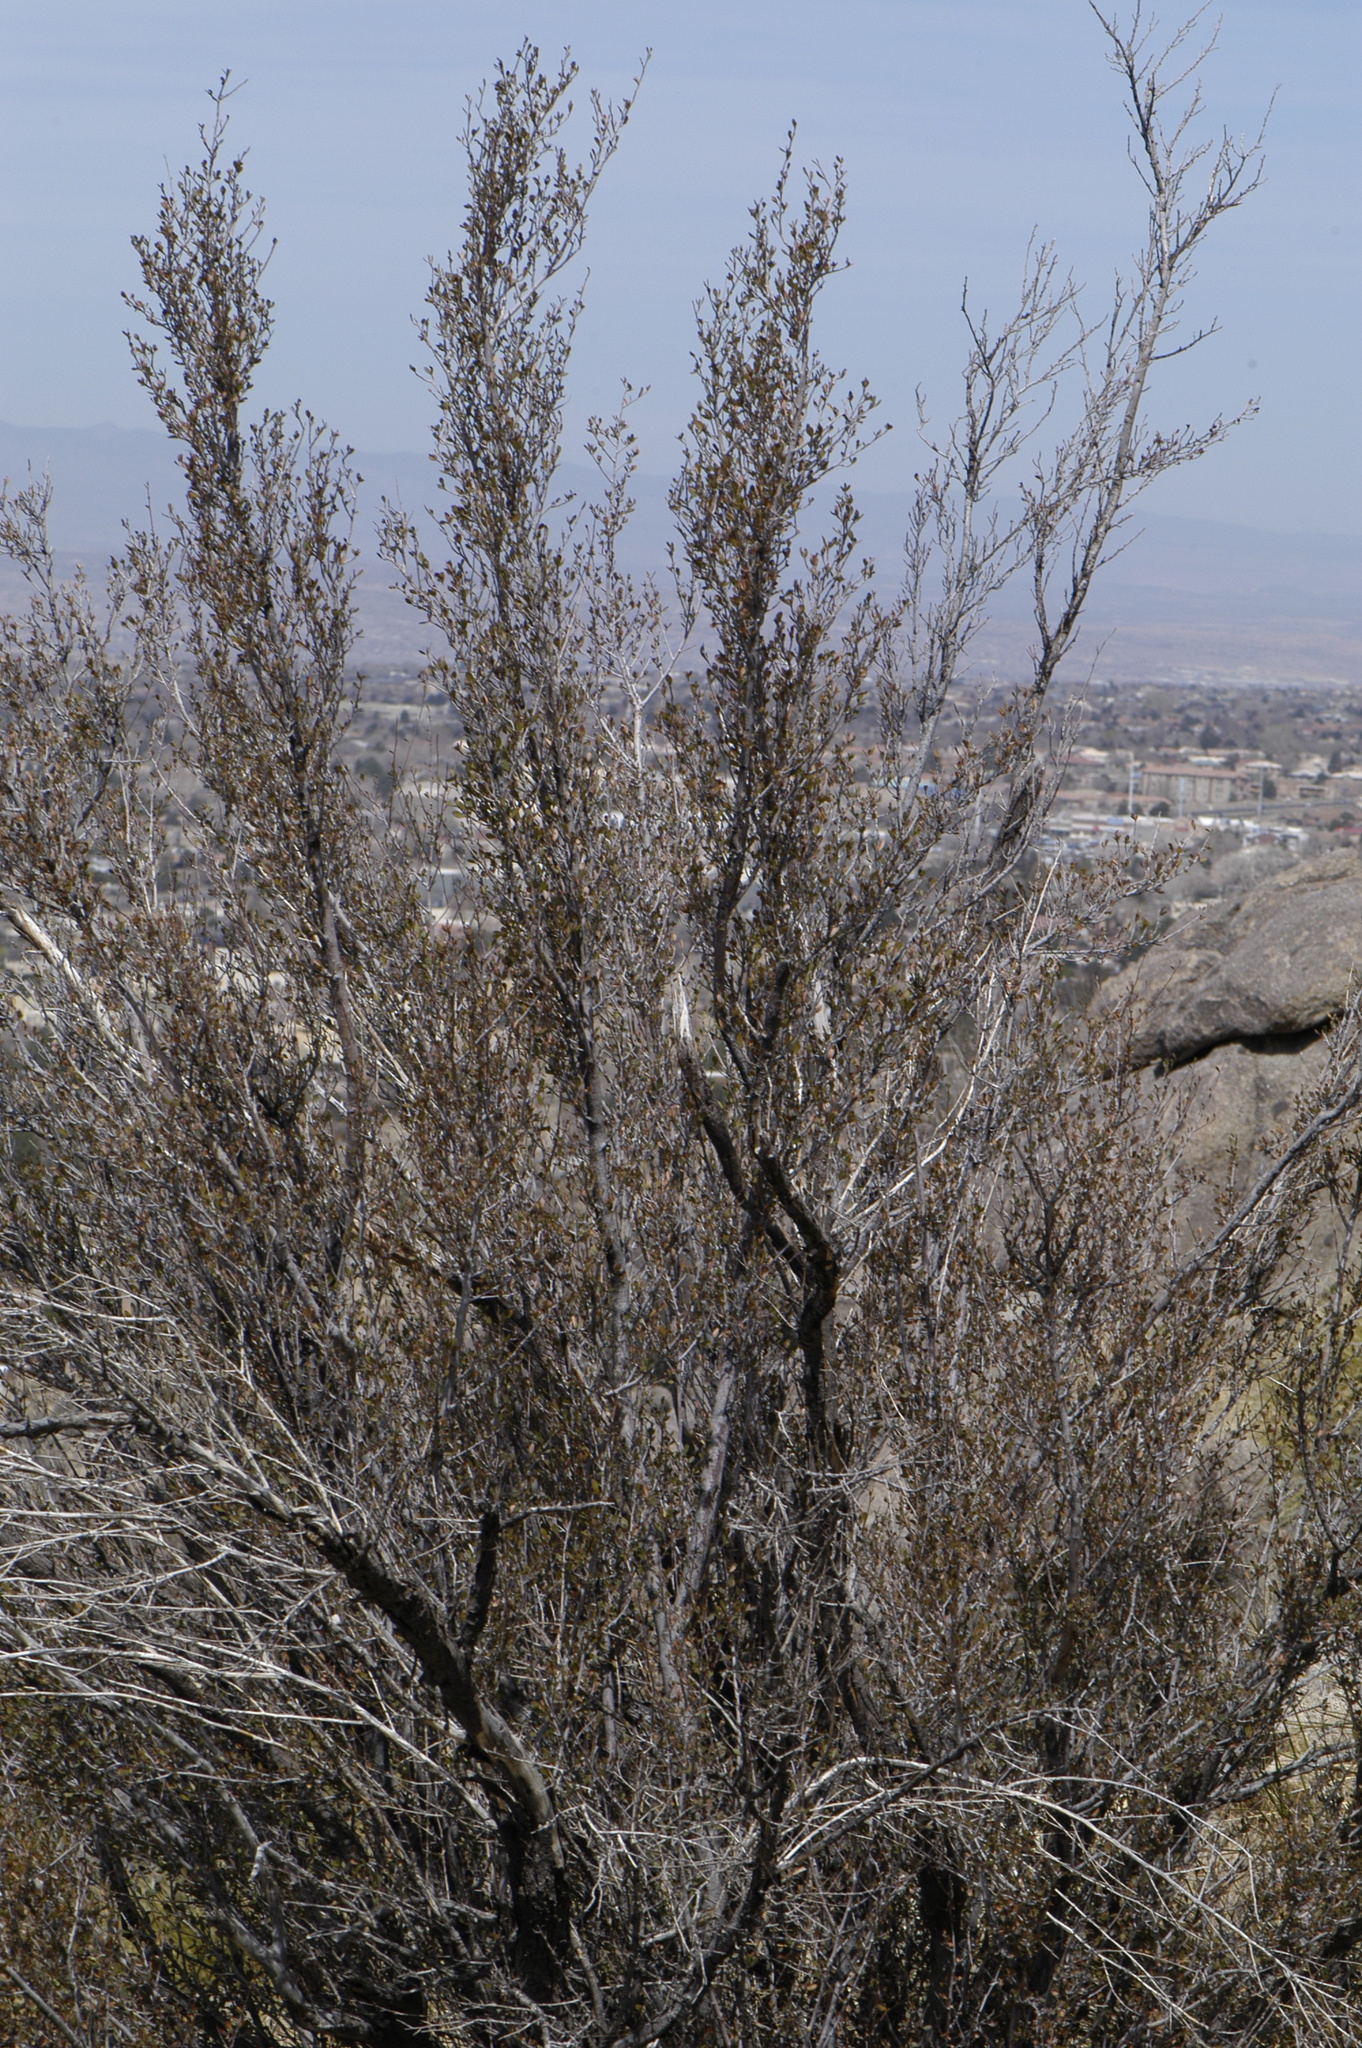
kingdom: Plantae
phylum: Tracheophyta
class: Magnoliopsida
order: Rosales
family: Rosaceae
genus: Cercocarpus
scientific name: Cercocarpus breviflorus
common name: Wright's mountain-mahogany
